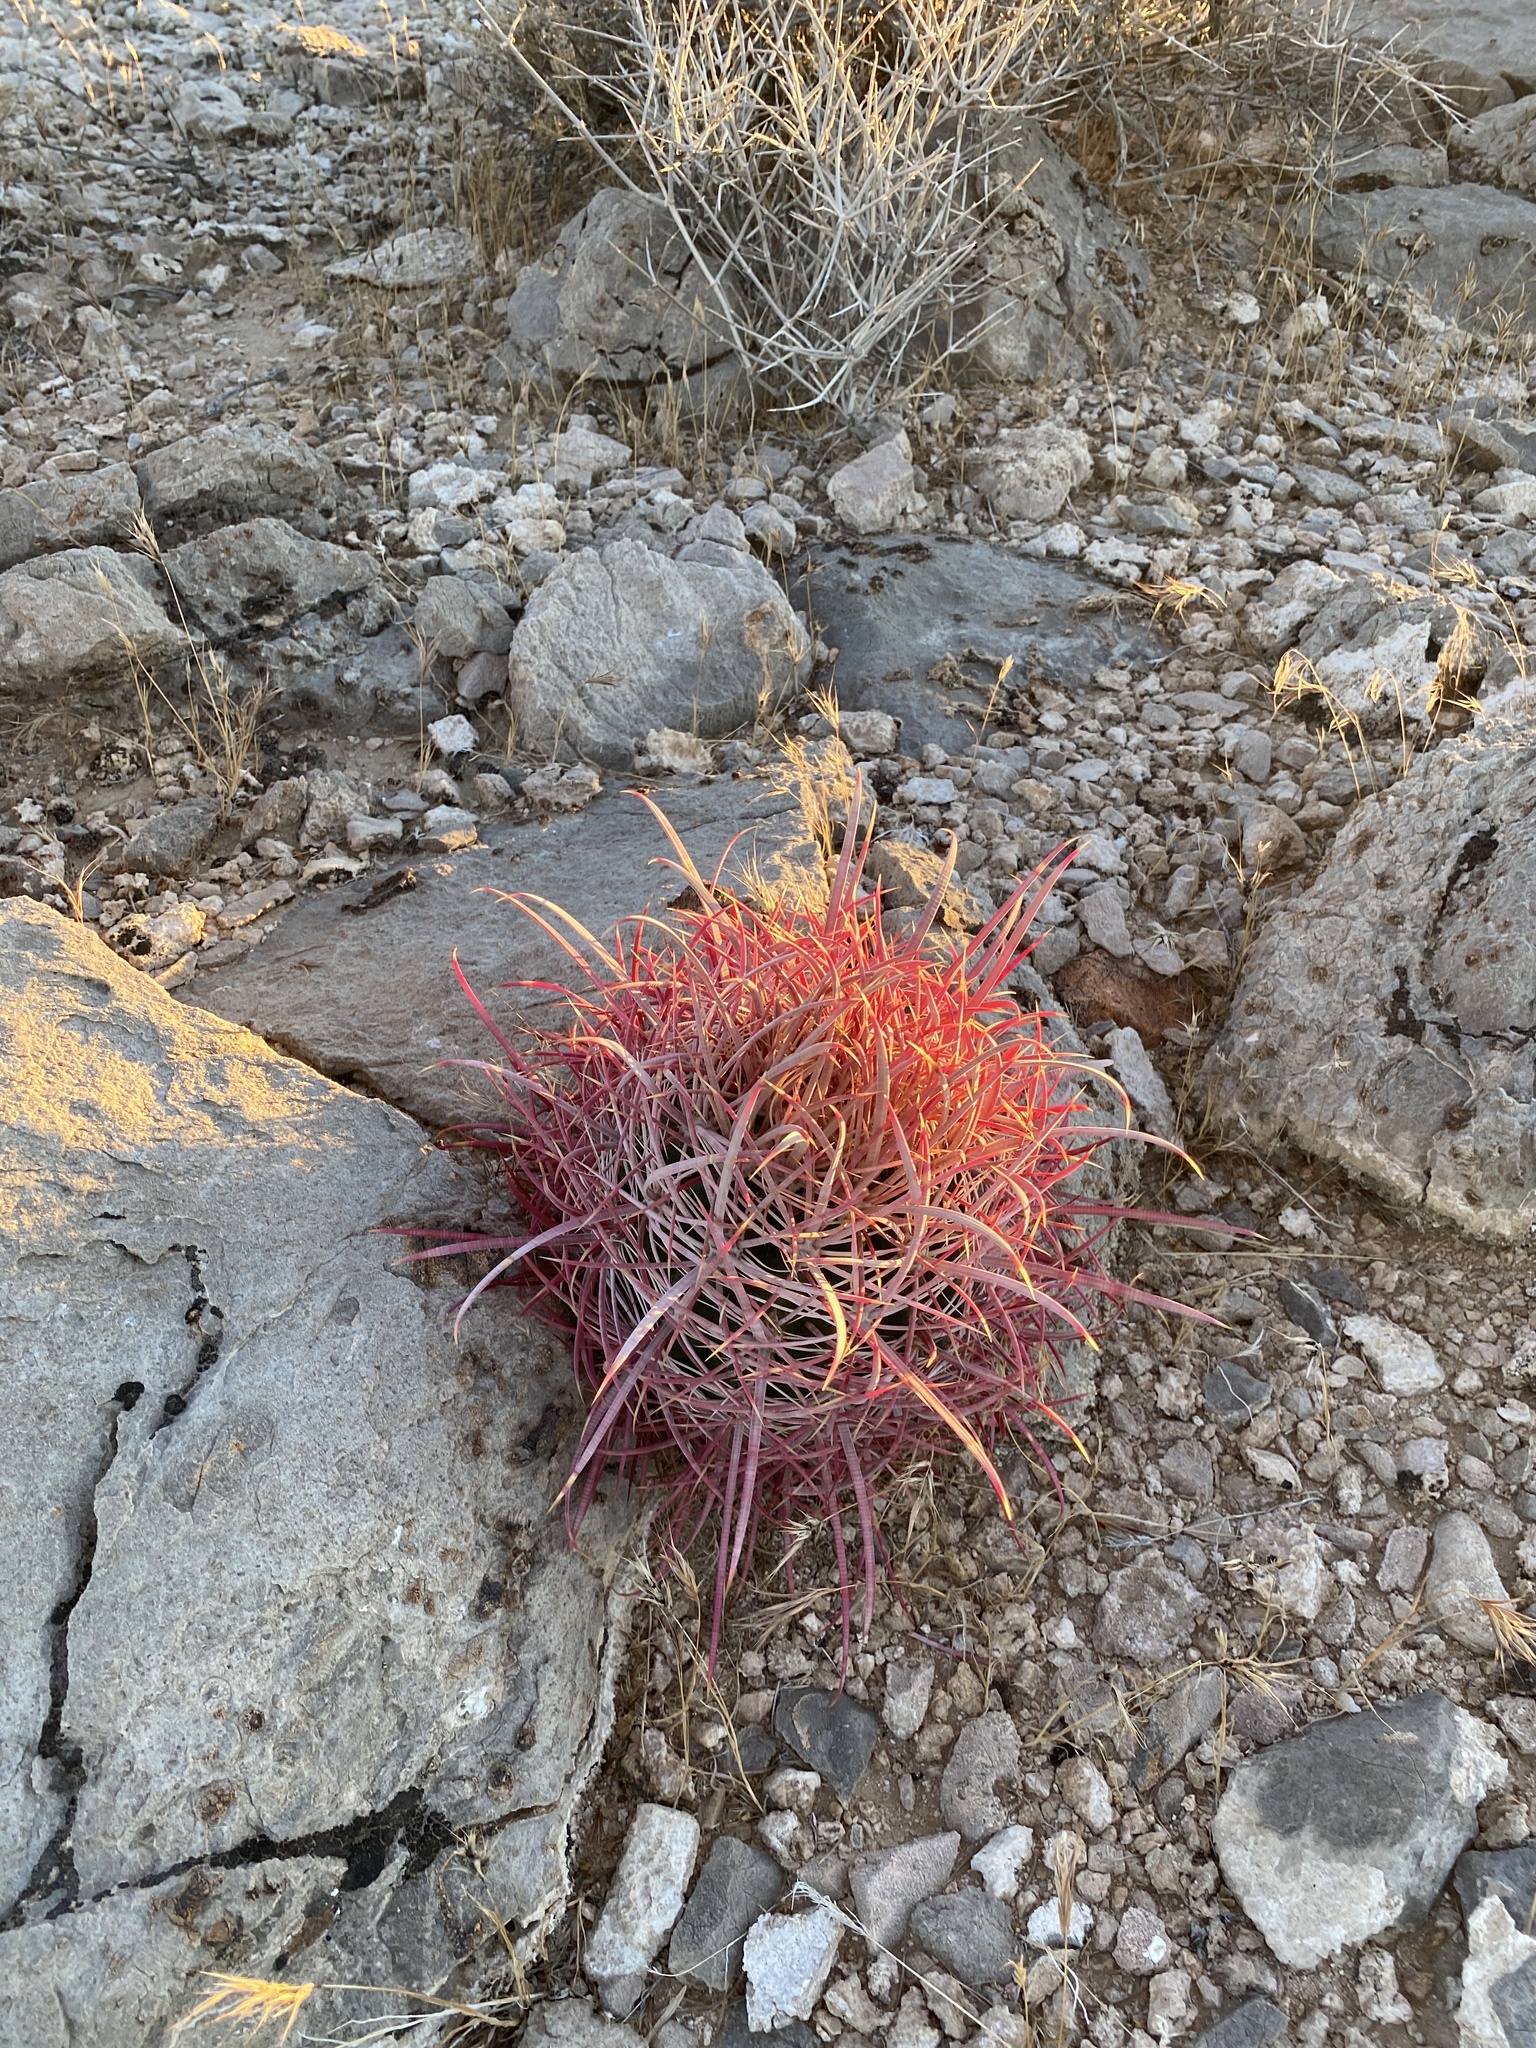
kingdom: Plantae
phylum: Tracheophyta
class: Magnoliopsida
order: Caryophyllales
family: Cactaceae
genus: Ferocactus
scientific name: Ferocactus cylindraceus
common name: California barrel cactus
